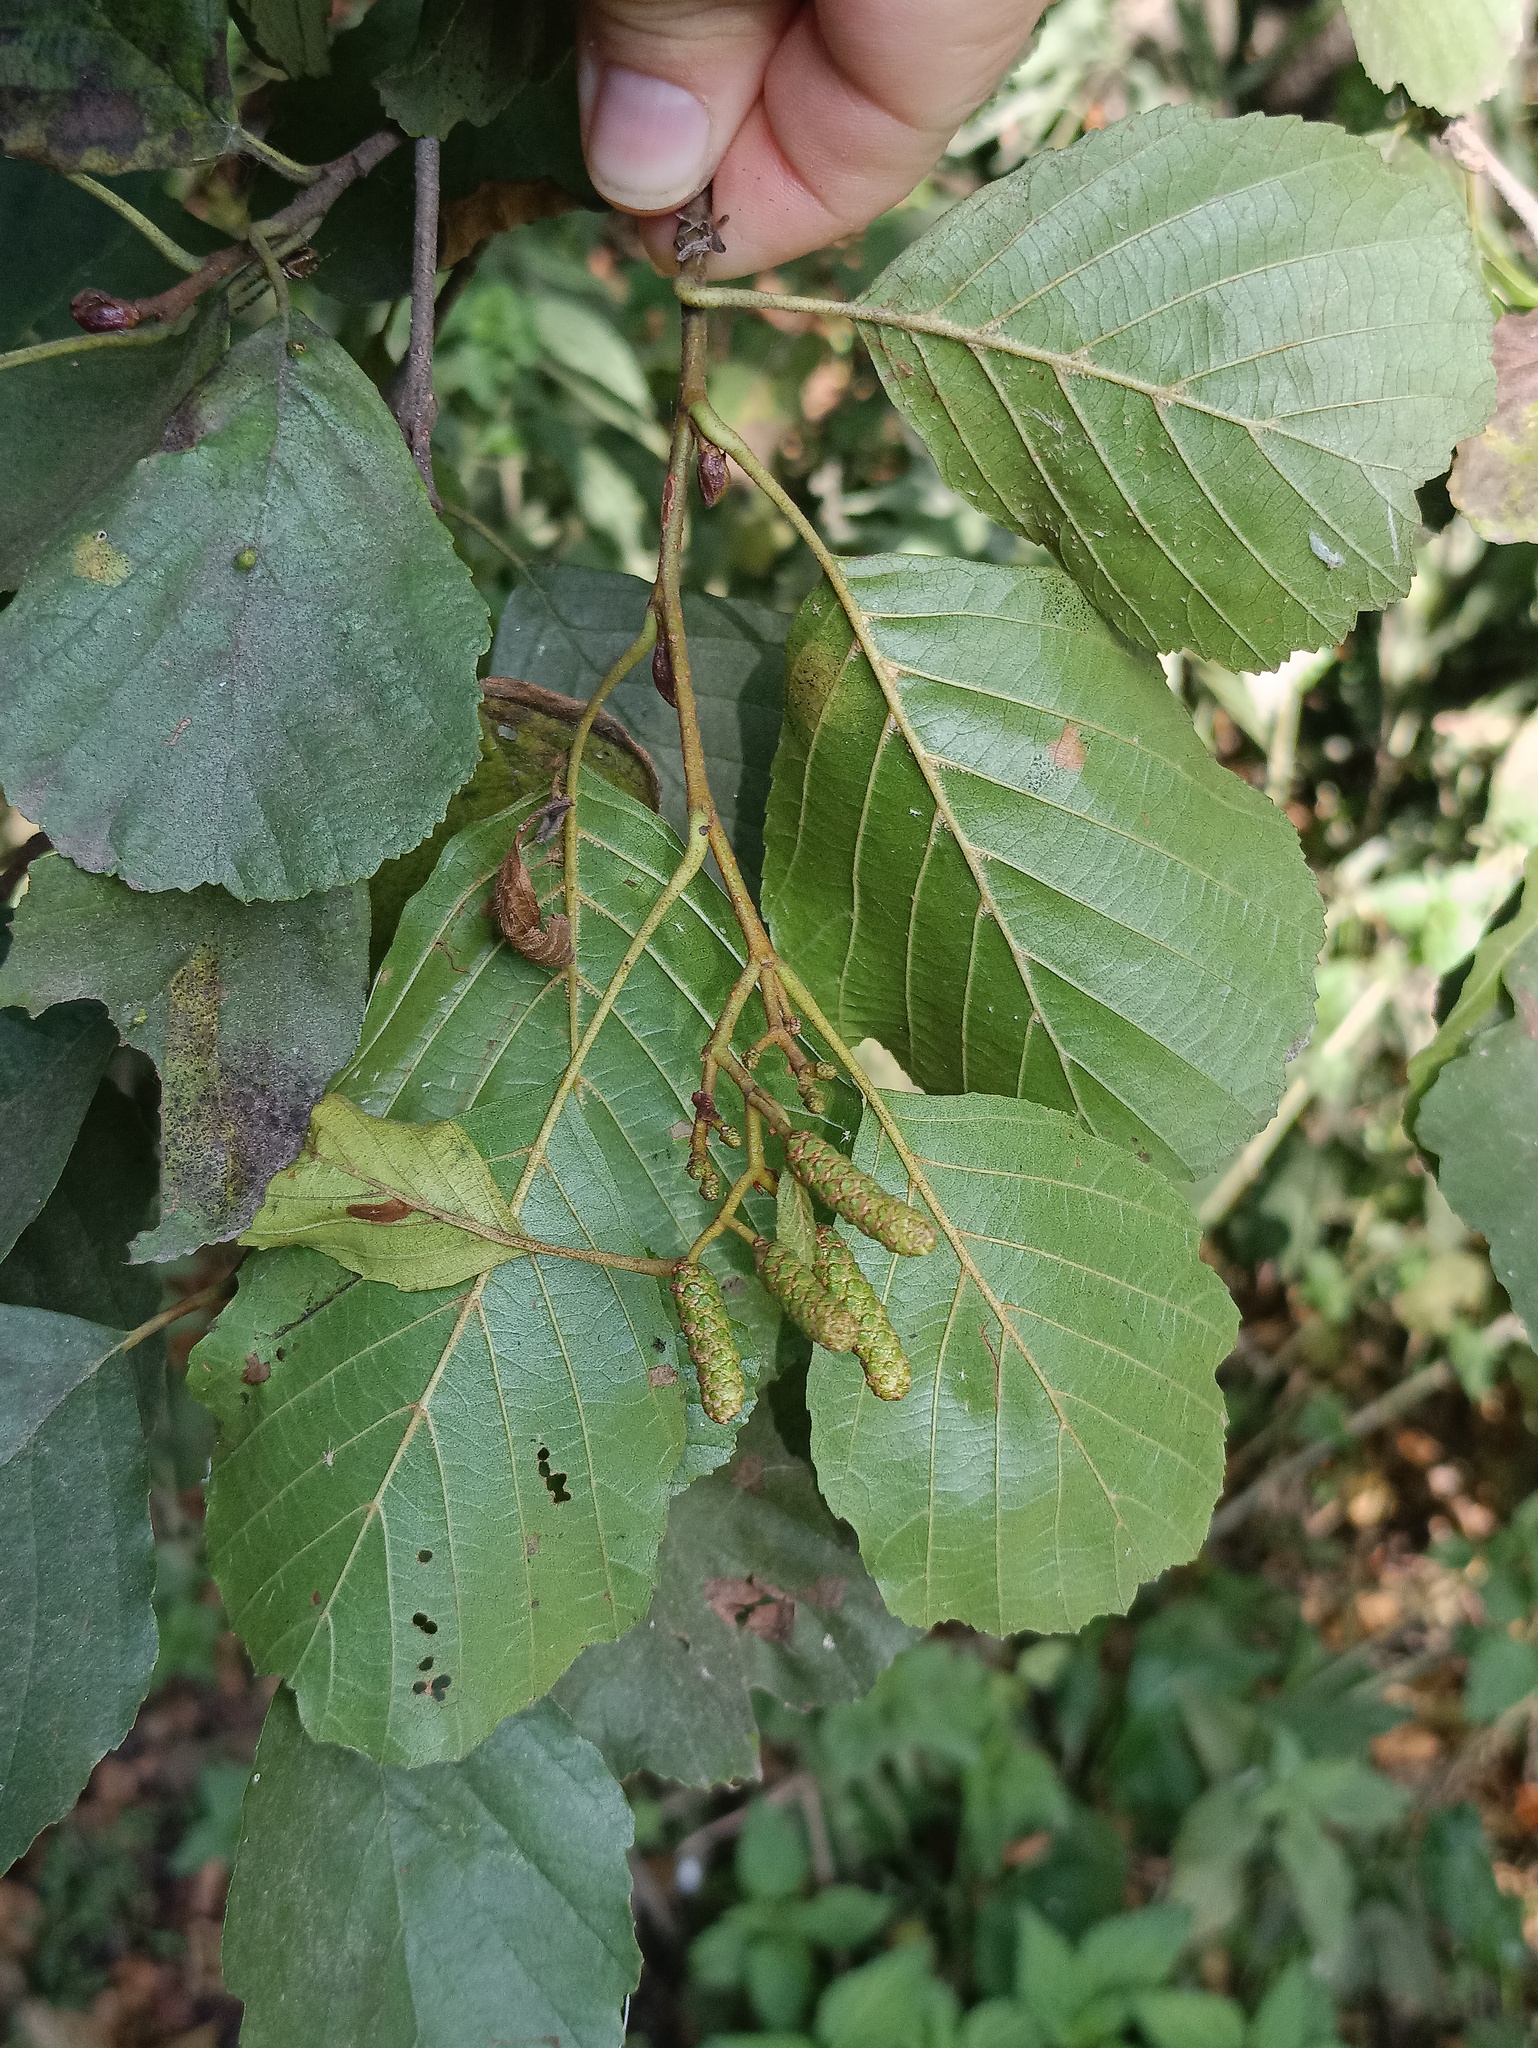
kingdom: Plantae
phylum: Tracheophyta
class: Magnoliopsida
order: Fagales
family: Betulaceae
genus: Alnus
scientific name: Alnus glutinosa
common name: Black alder
